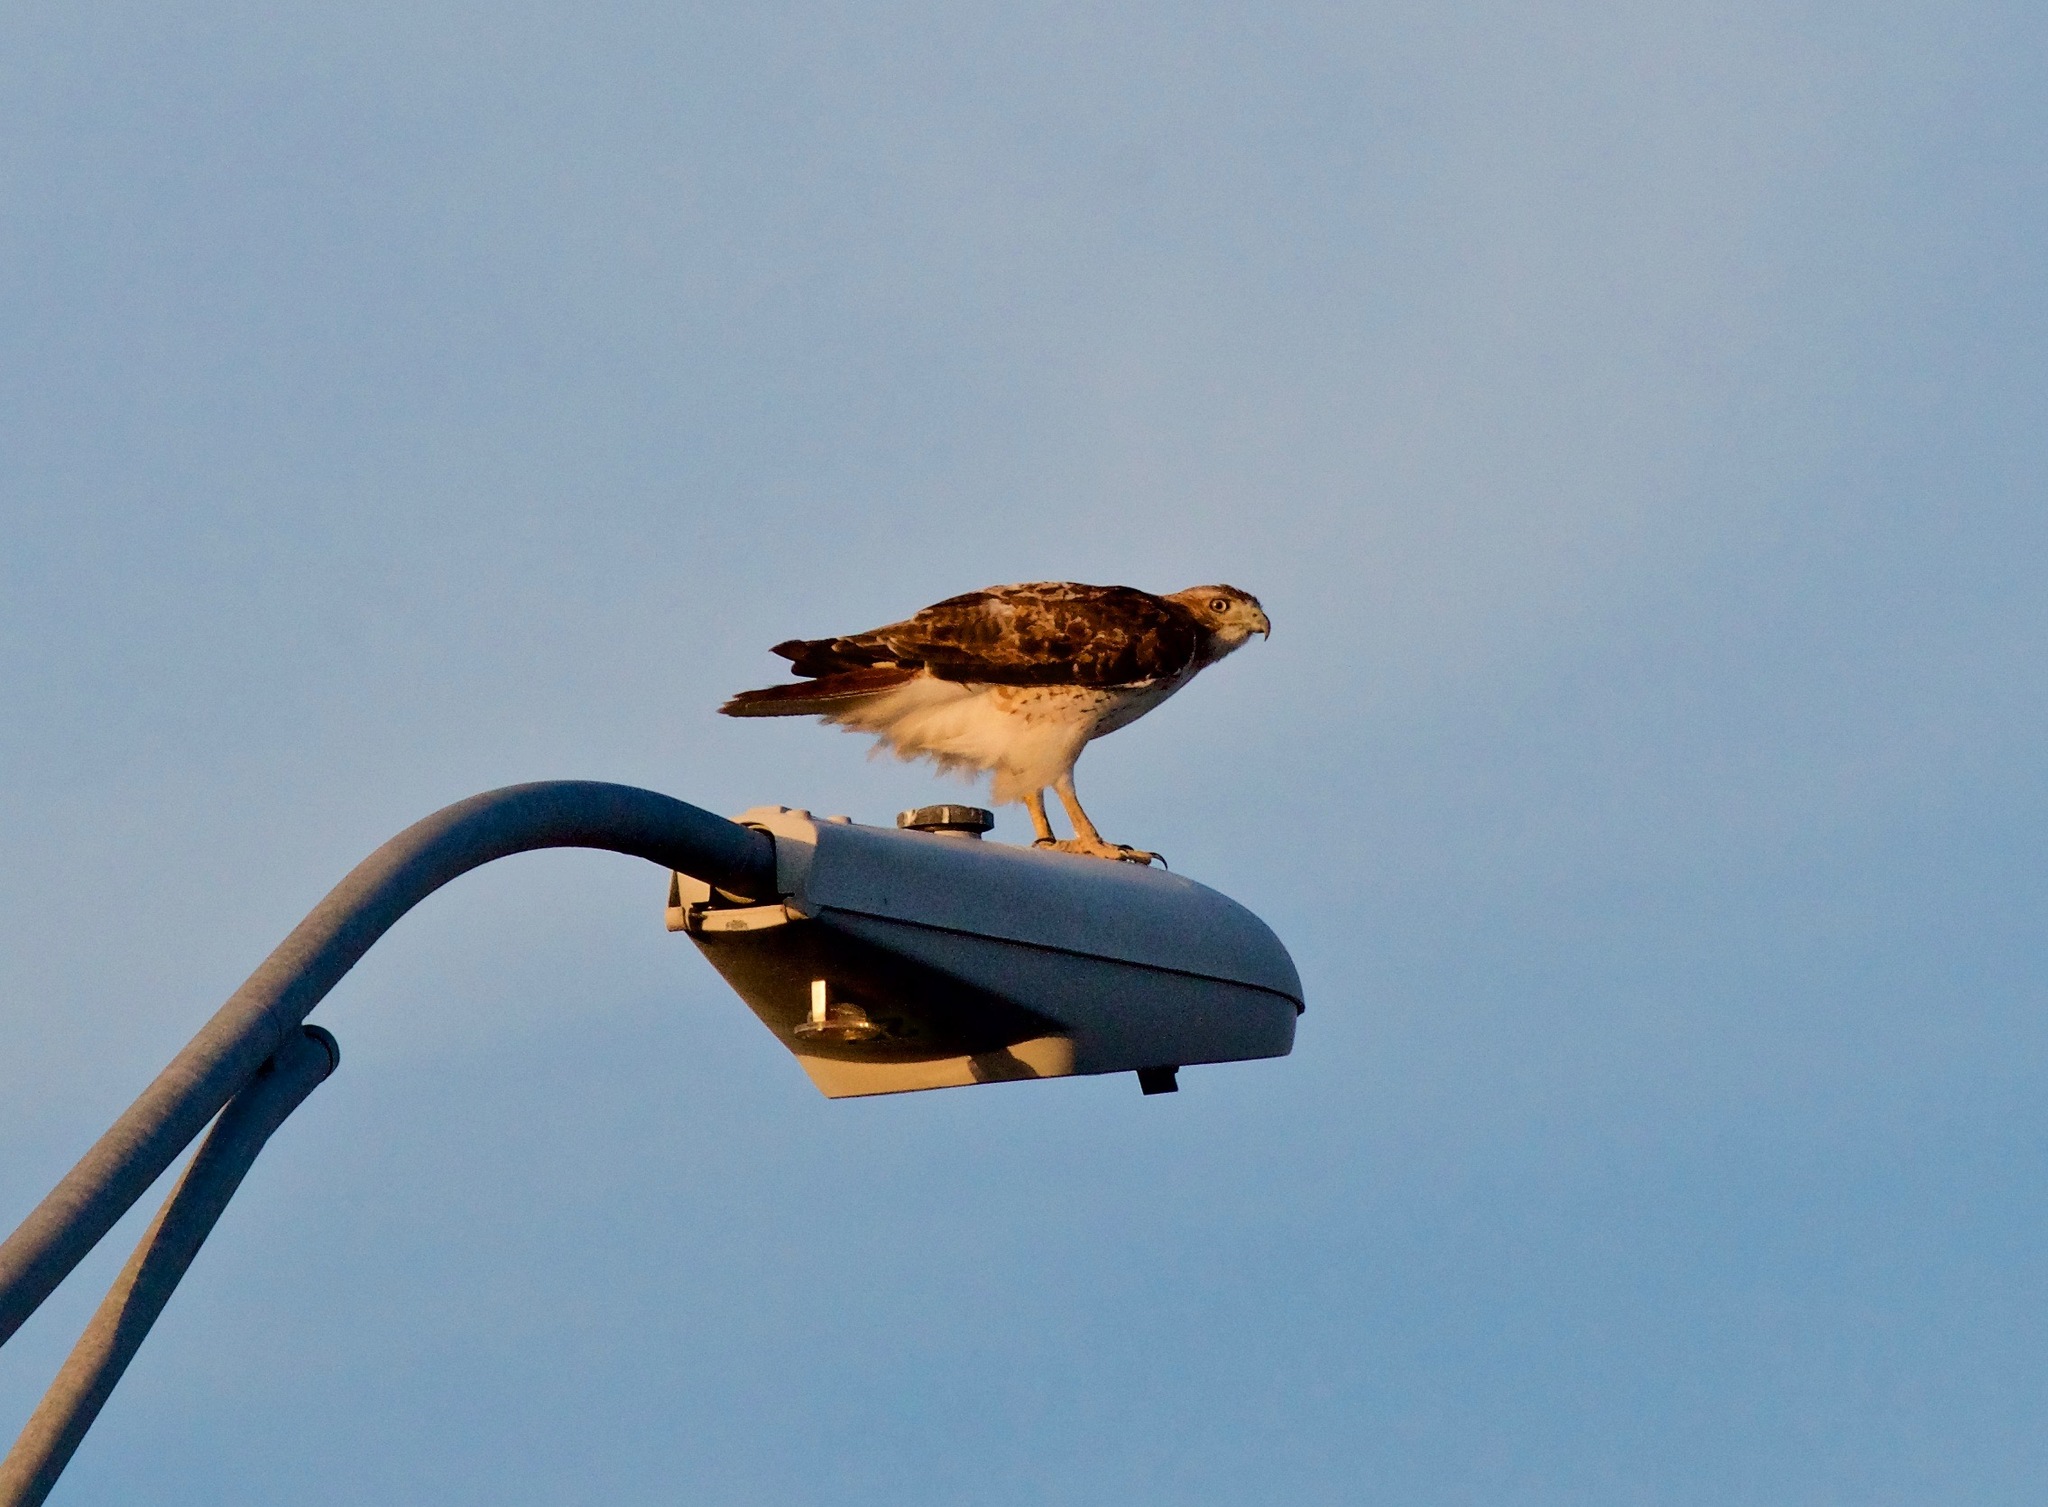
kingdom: Animalia
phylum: Chordata
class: Aves
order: Accipitriformes
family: Accipitridae
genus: Buteo
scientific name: Buteo jamaicensis
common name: Red-tailed hawk
